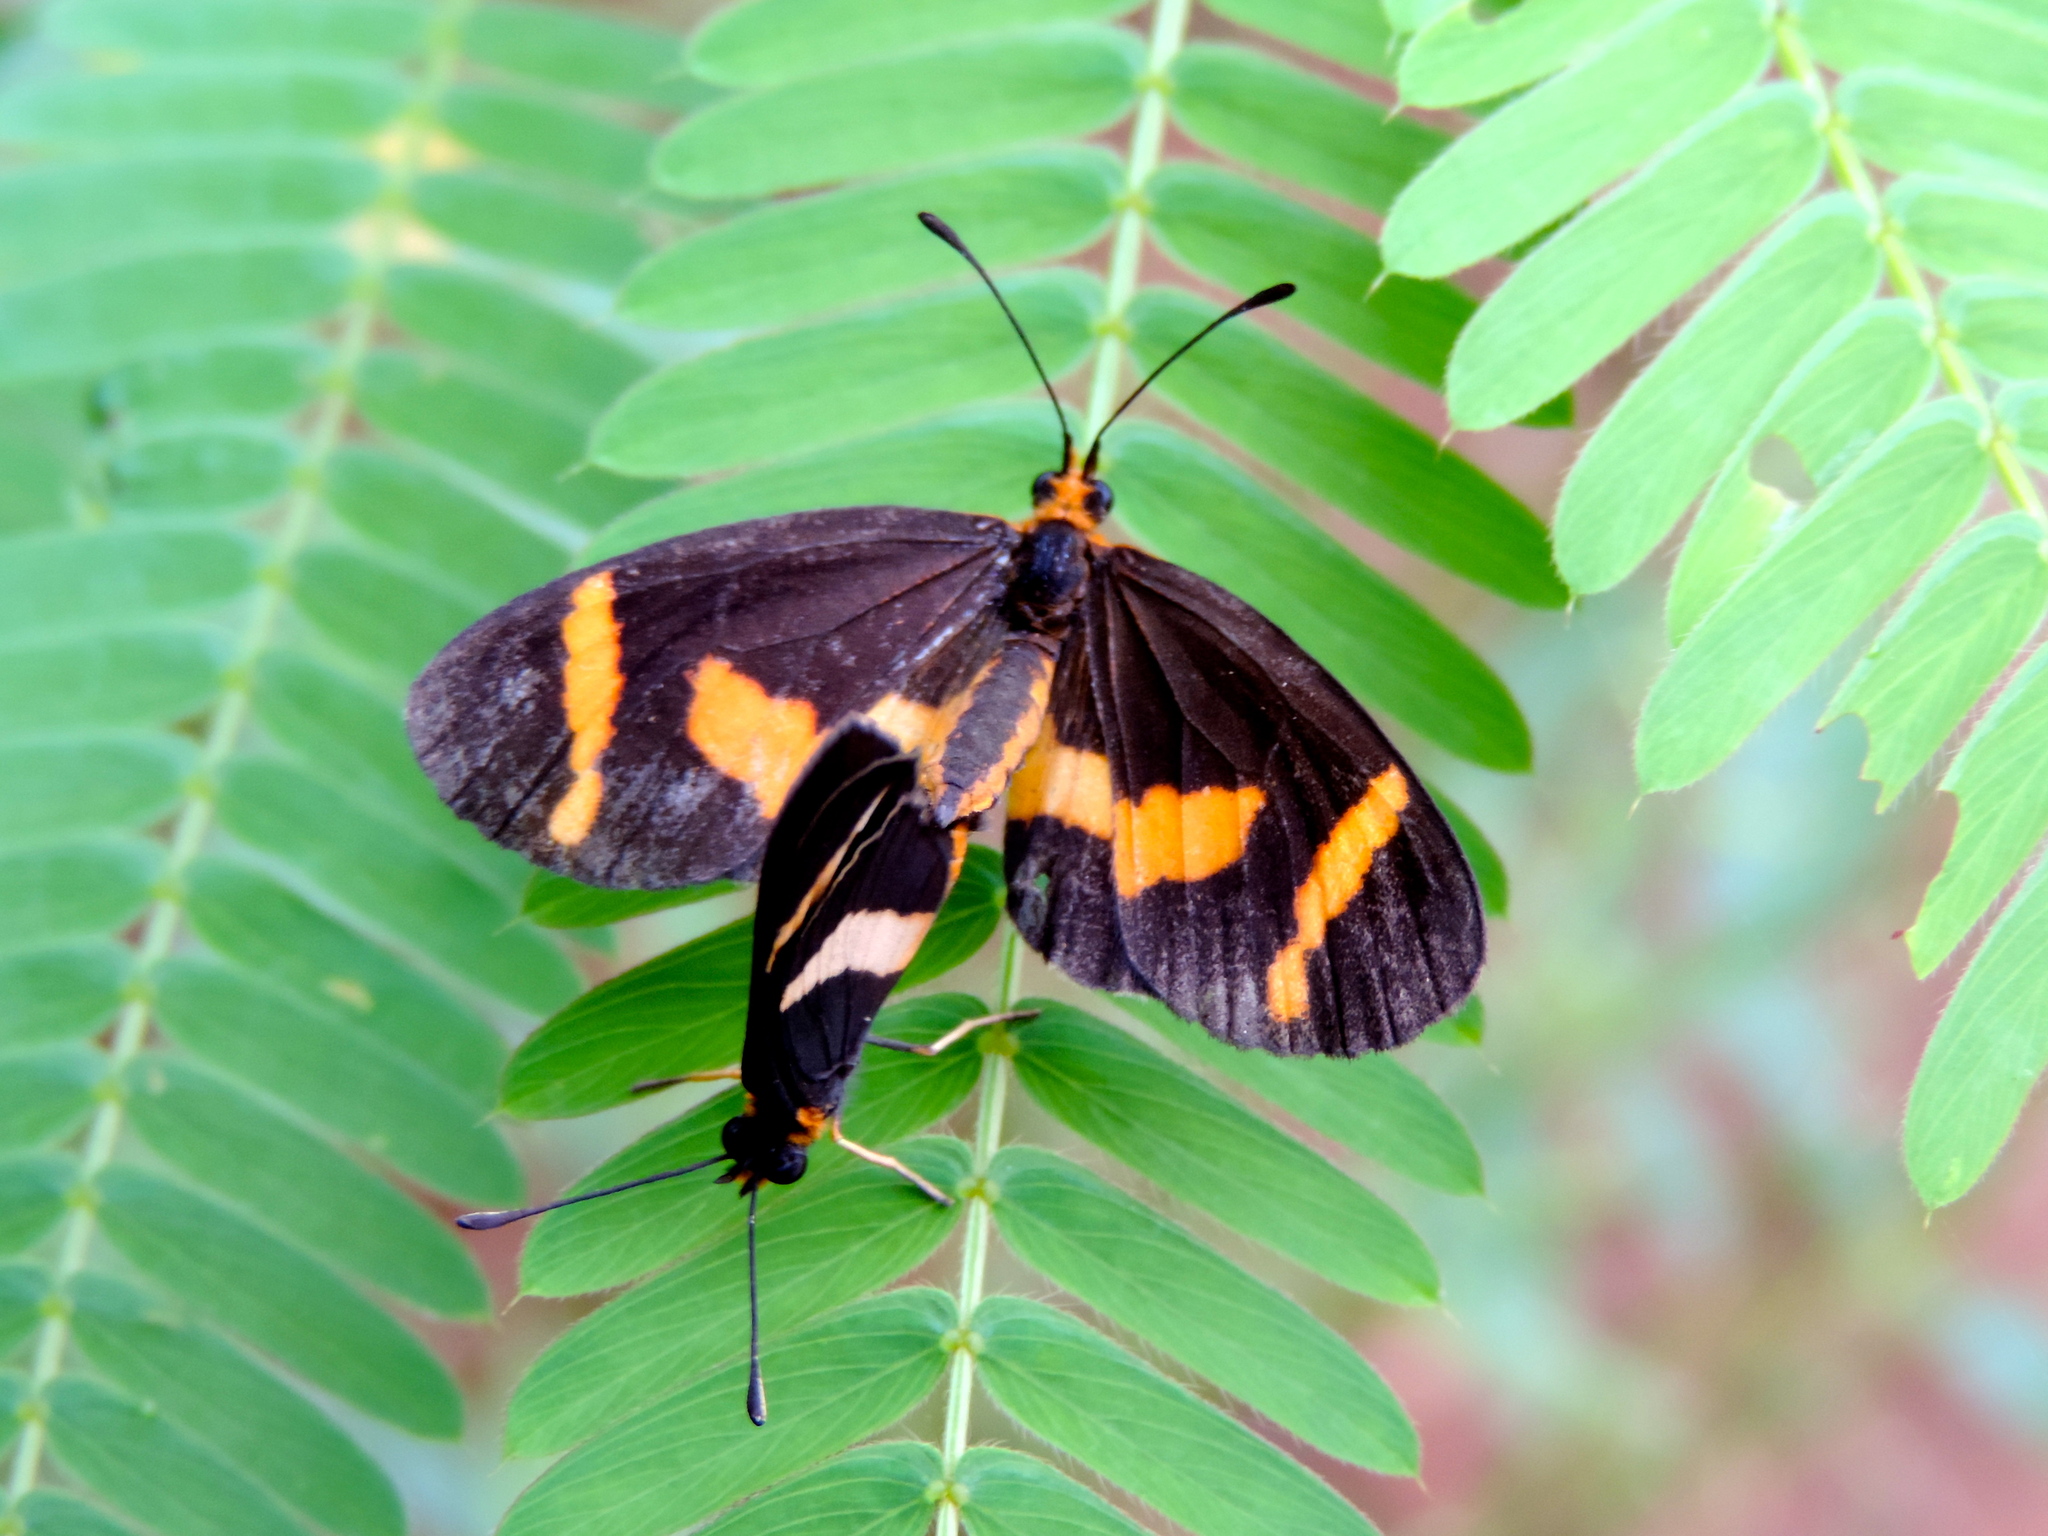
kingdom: Animalia
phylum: Arthropoda
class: Insecta
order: Lepidoptera
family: Nymphalidae
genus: Microtia
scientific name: Microtia elva
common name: Elf
